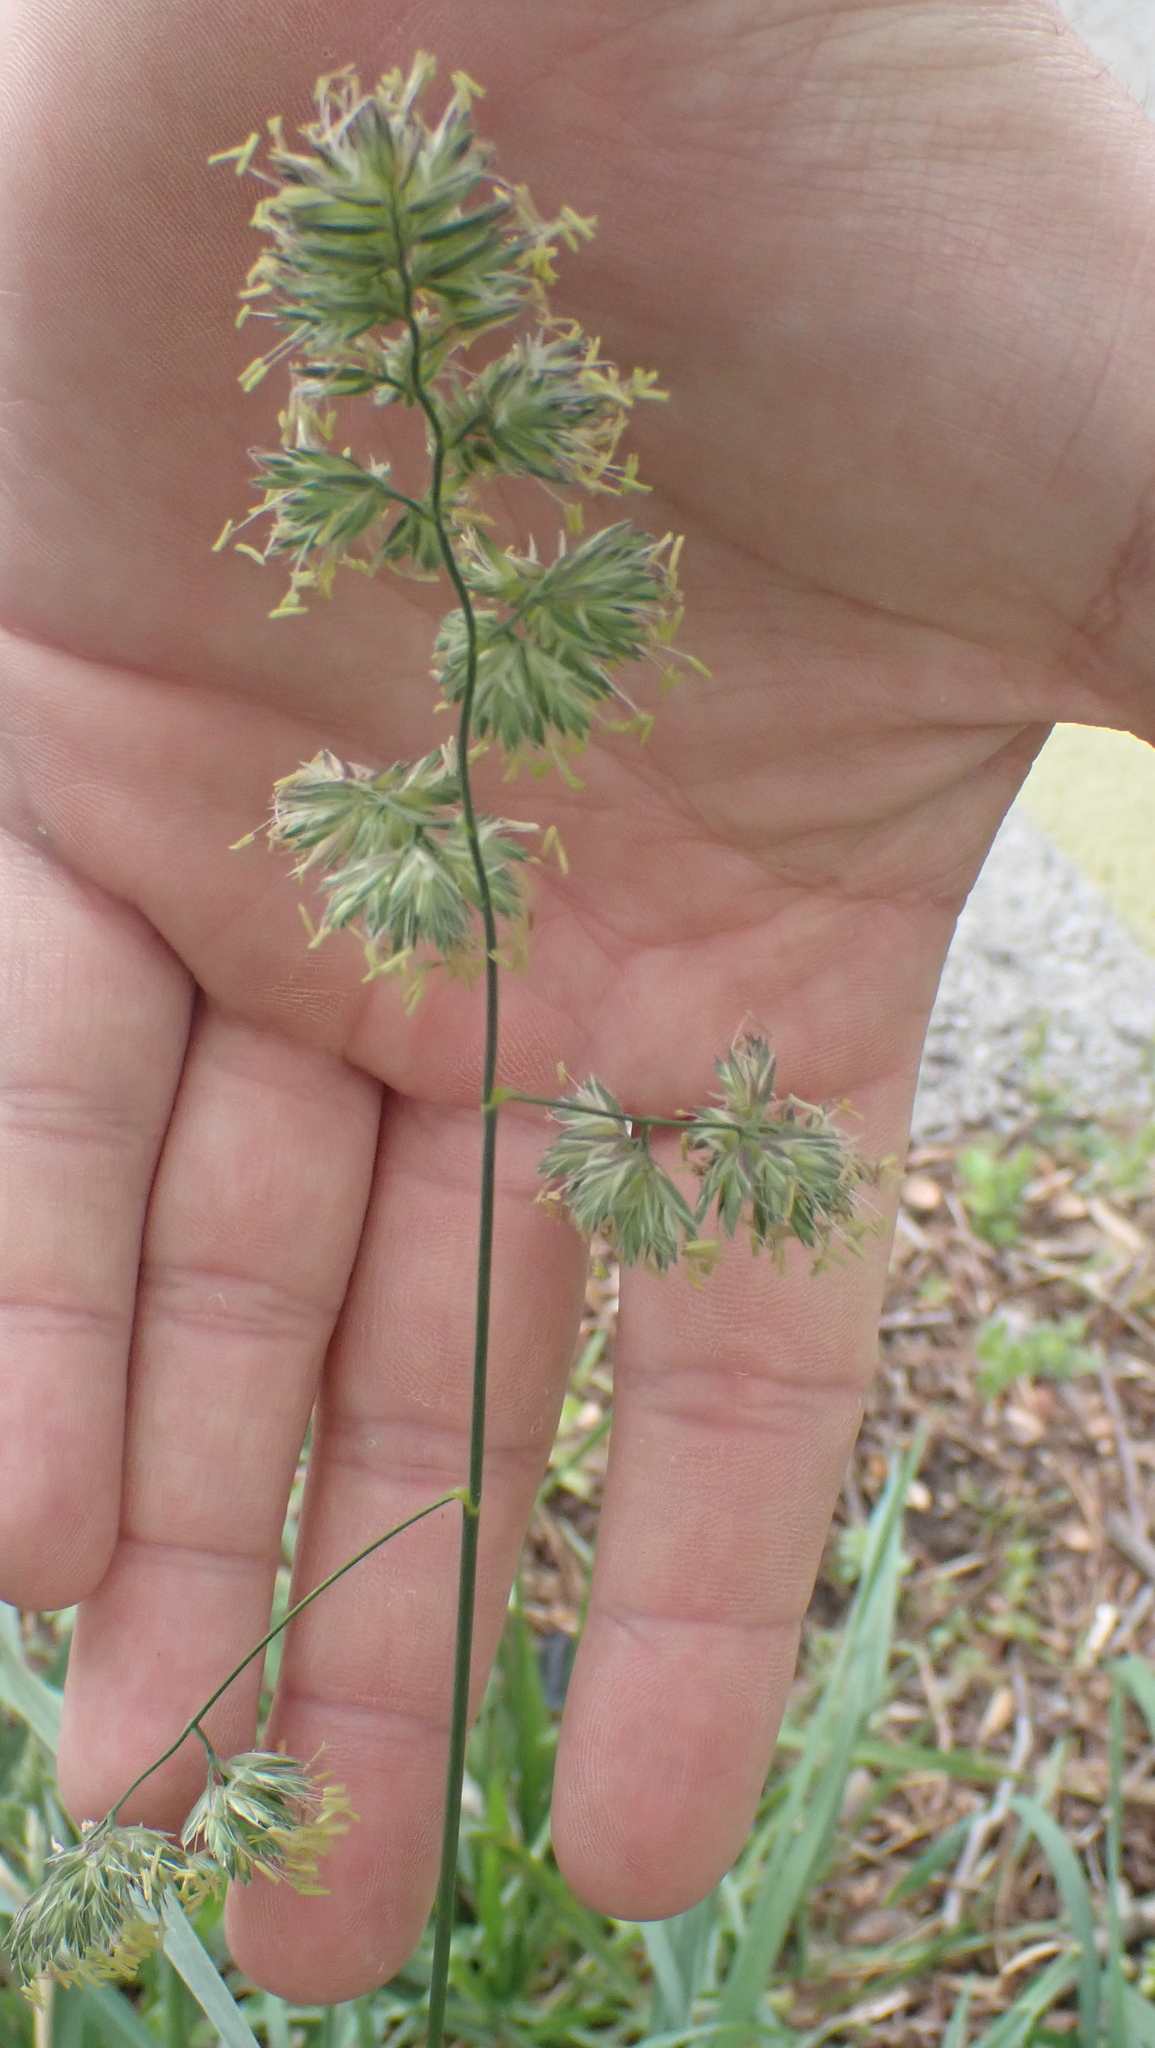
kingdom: Plantae
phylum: Tracheophyta
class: Liliopsida
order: Poales
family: Poaceae
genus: Dactylis
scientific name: Dactylis glomerata
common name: Orchardgrass
